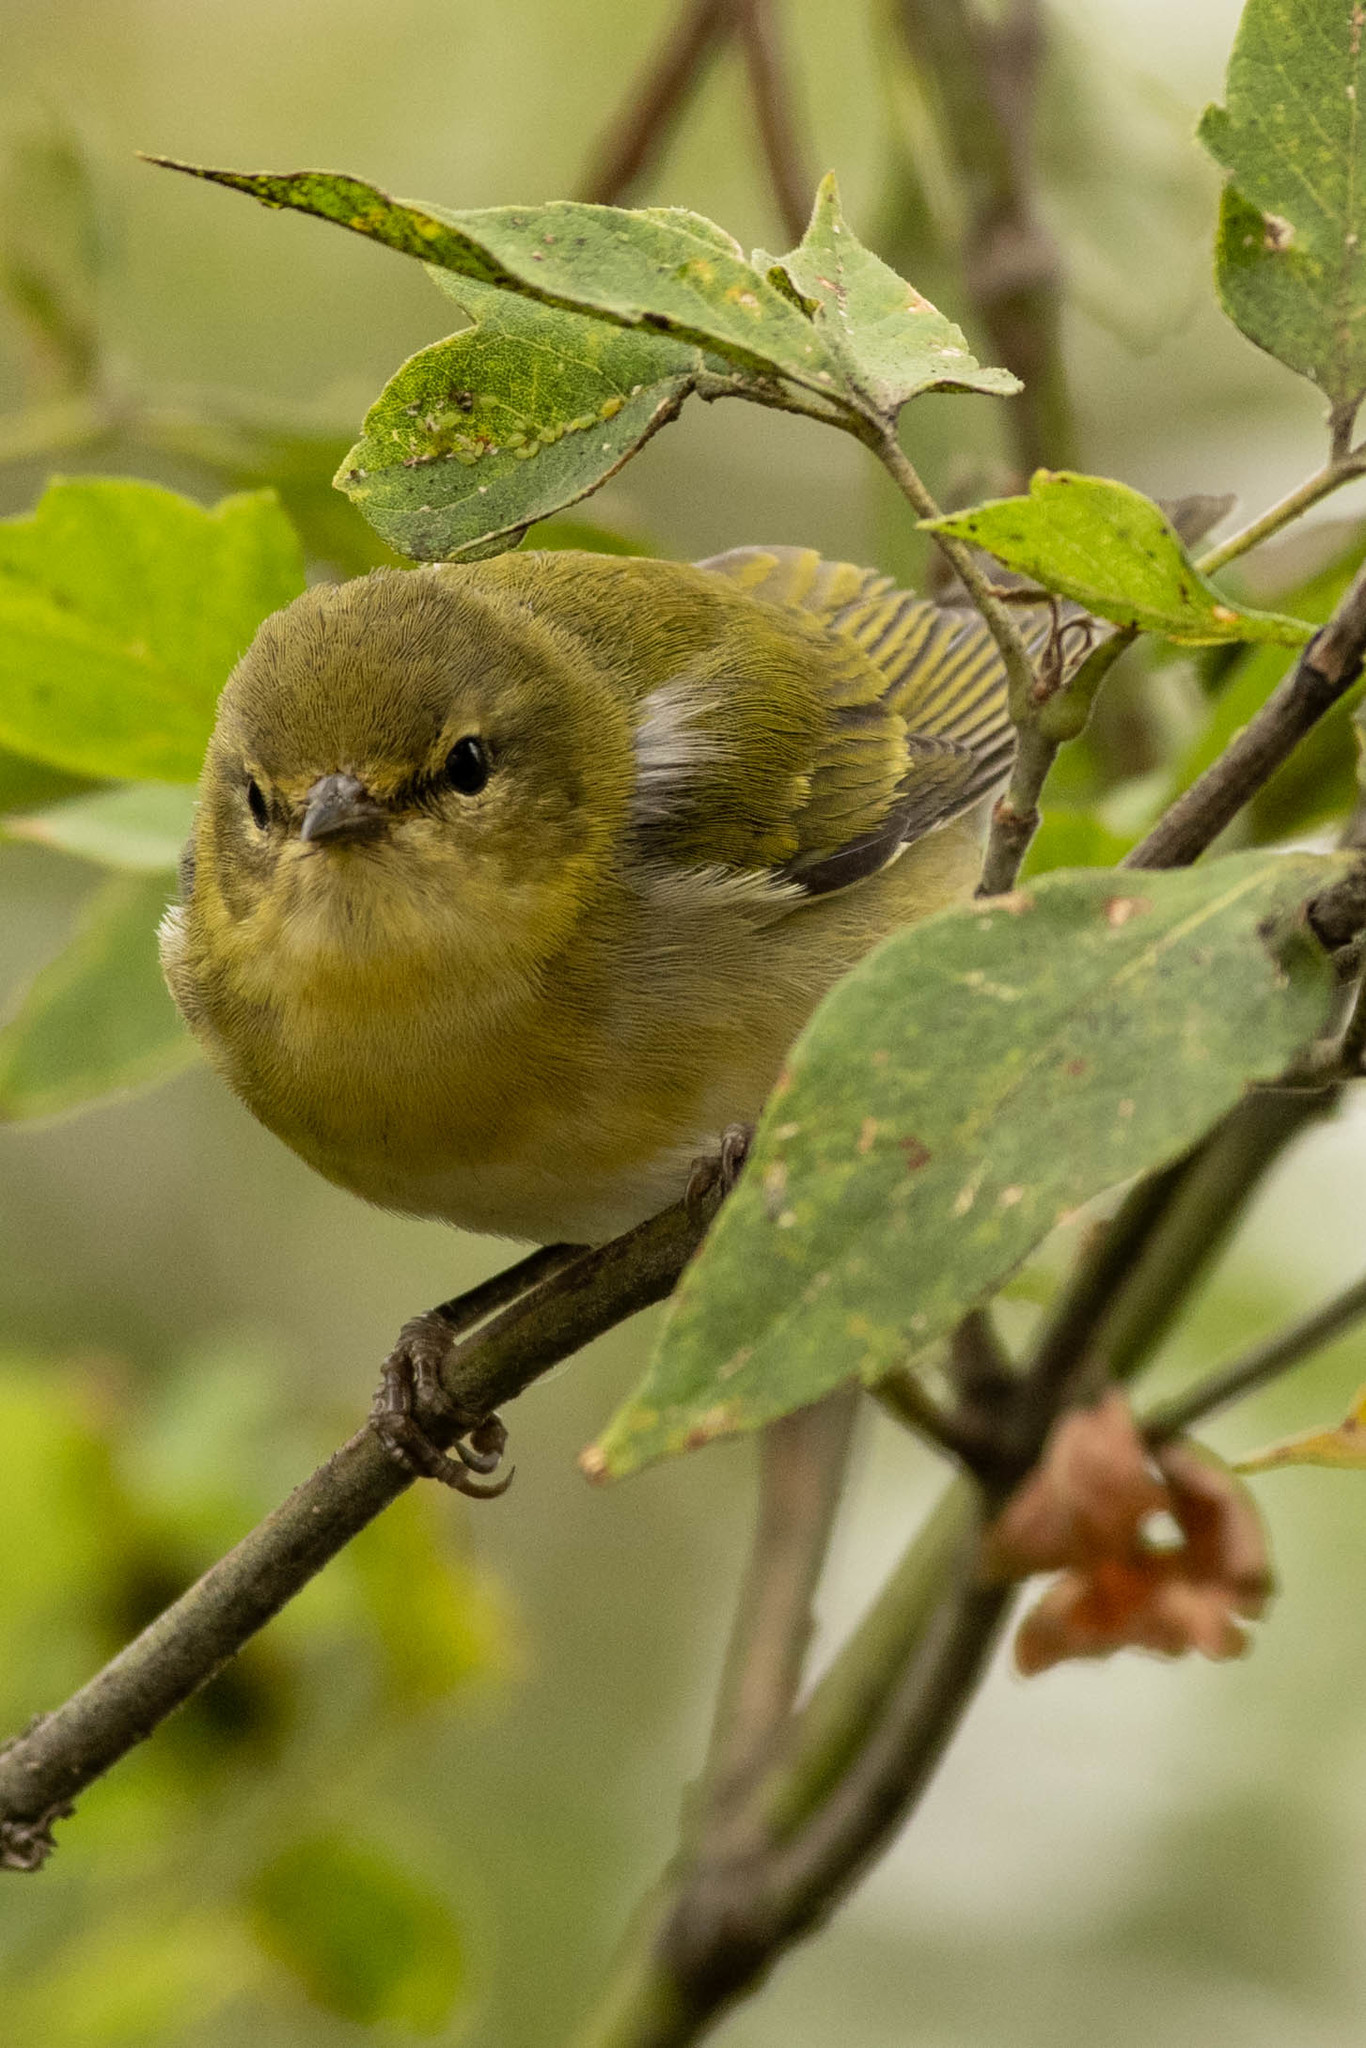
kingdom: Animalia
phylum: Chordata
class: Aves
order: Passeriformes
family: Parulidae
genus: Leiothlypis
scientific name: Leiothlypis peregrina
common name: Tennessee warbler
